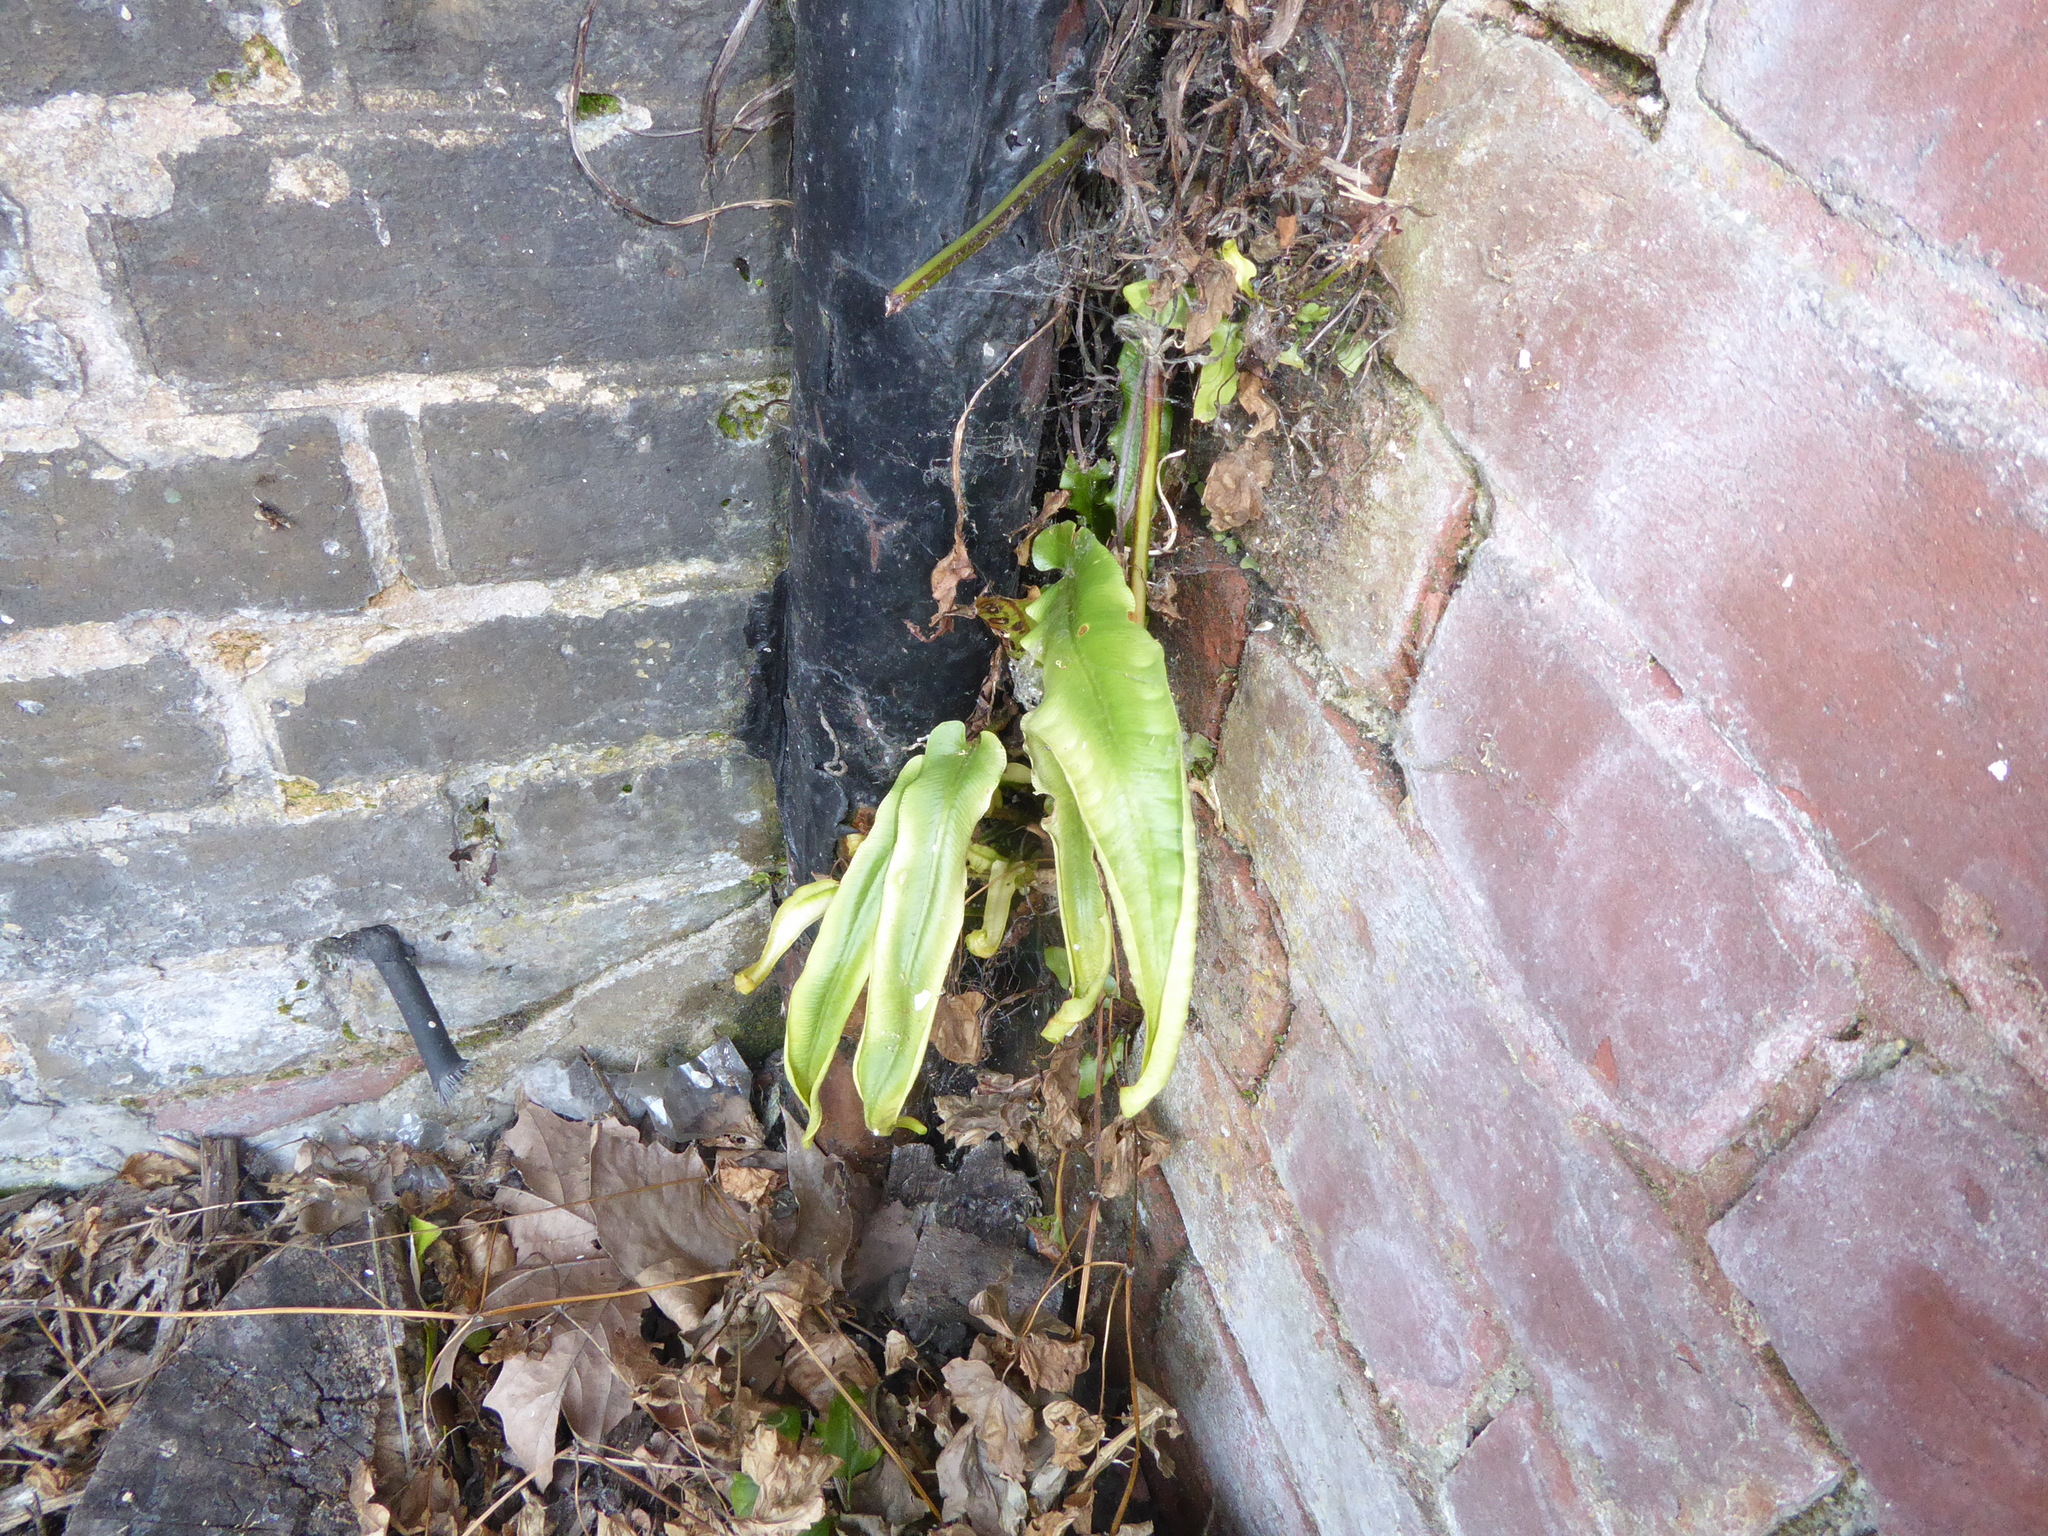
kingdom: Plantae
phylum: Tracheophyta
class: Polypodiopsida
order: Polypodiales
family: Aspleniaceae
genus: Asplenium
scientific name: Asplenium scolopendrium
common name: Hart's-tongue fern
